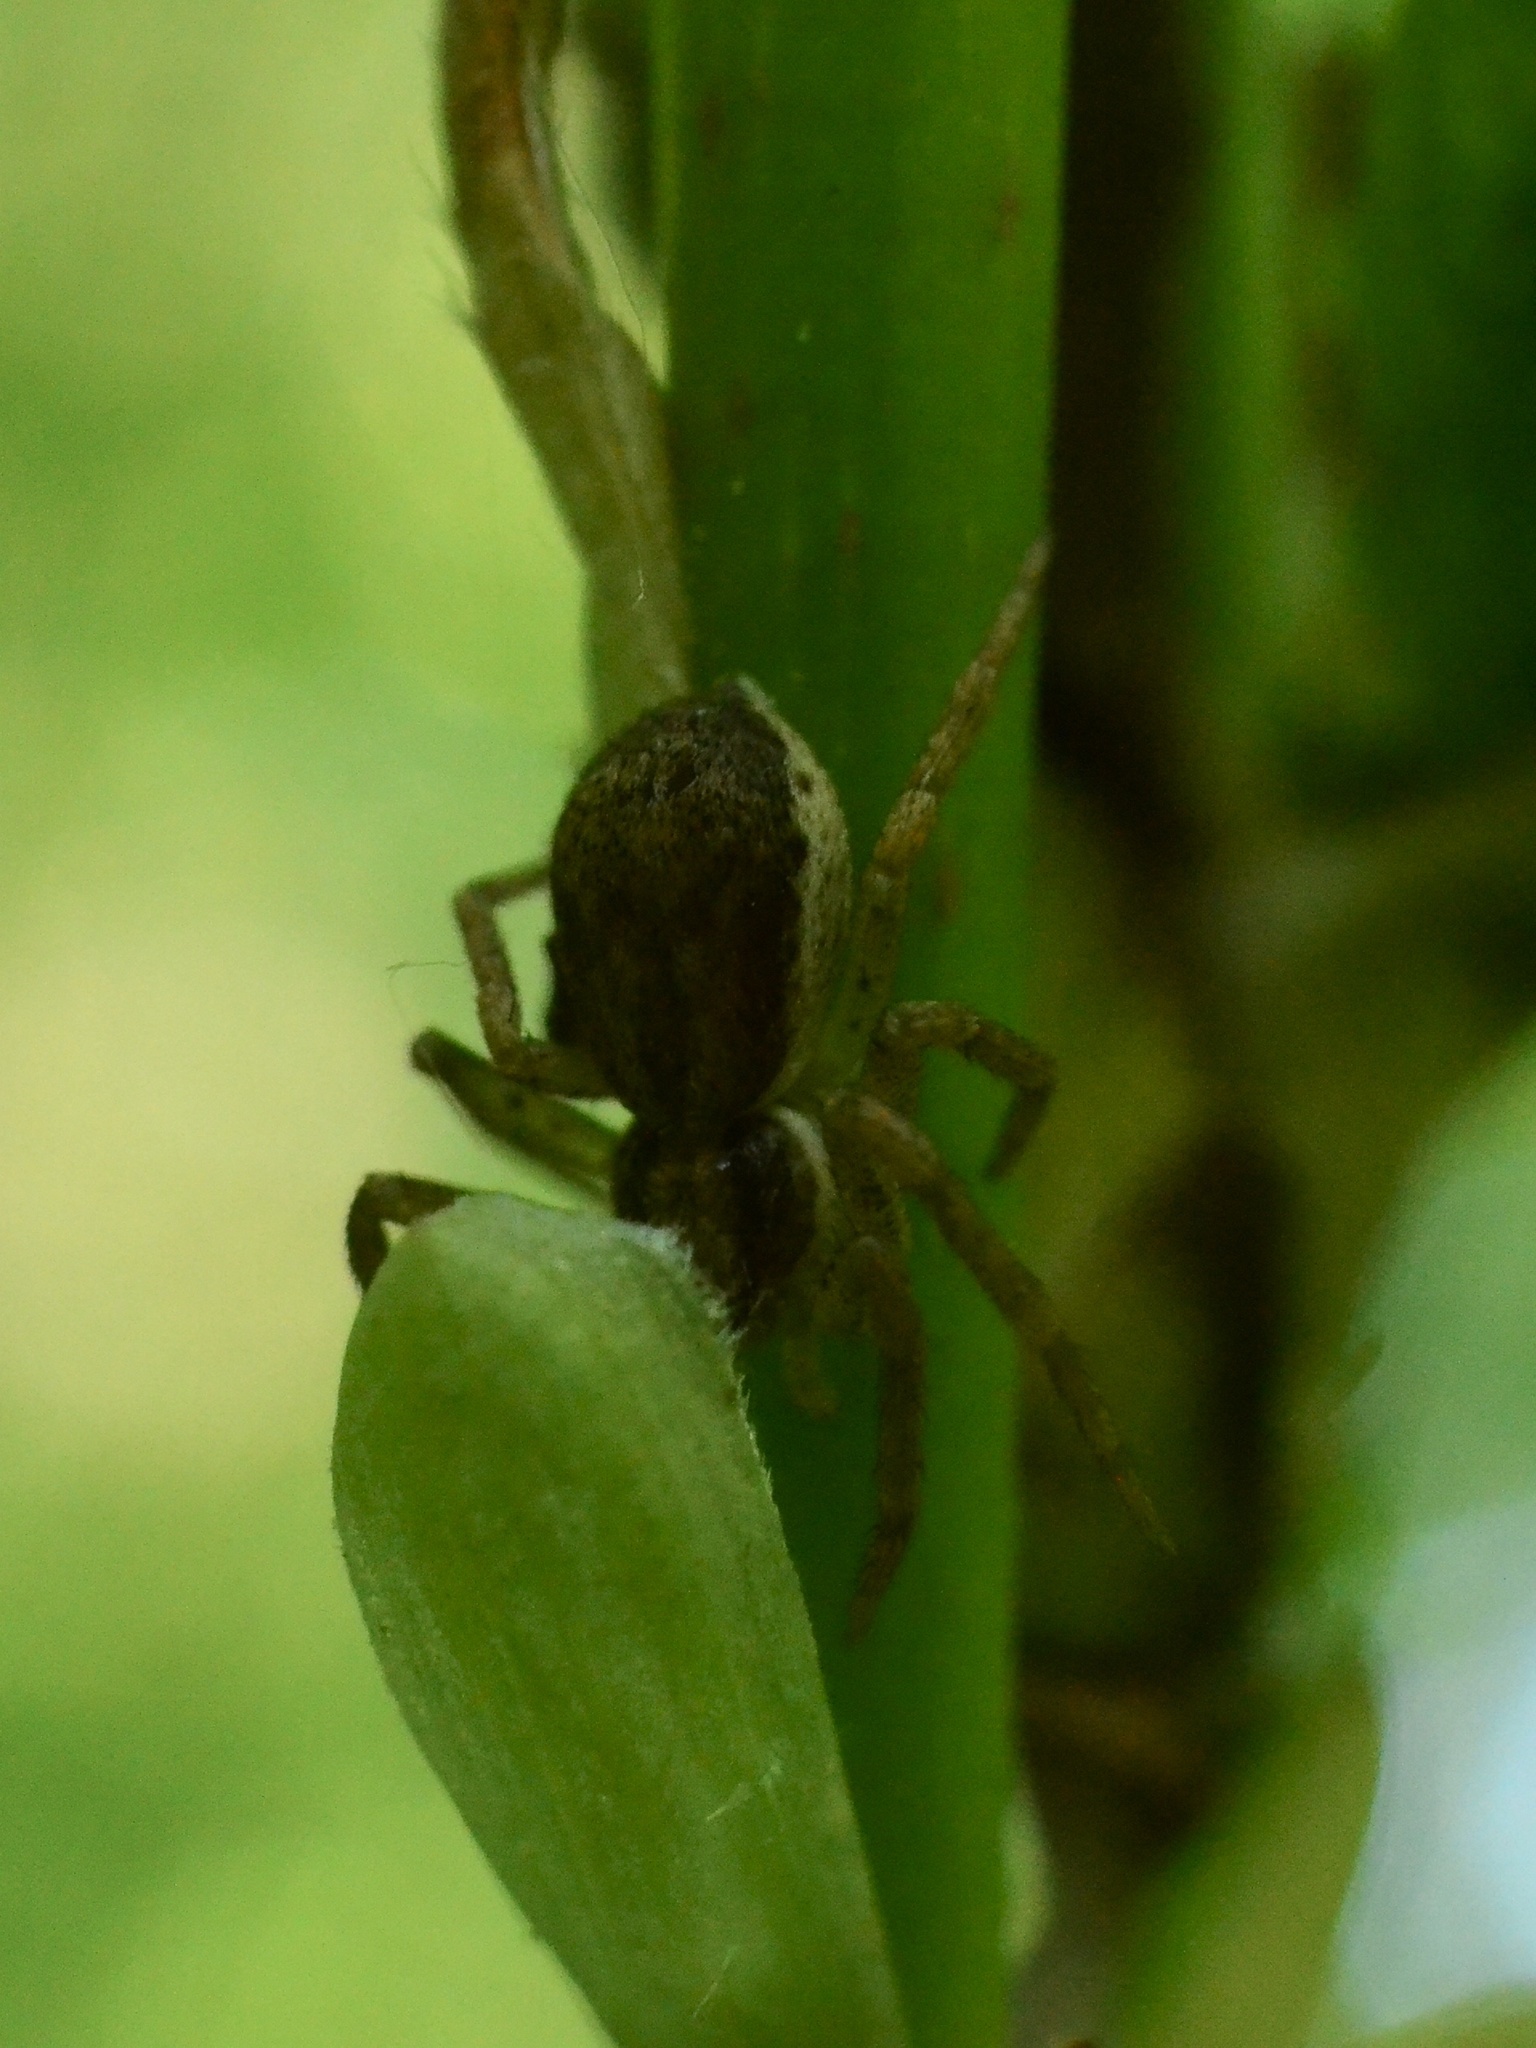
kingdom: Animalia
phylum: Arthropoda
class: Arachnida
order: Araneae
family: Philodromidae
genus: Philodromus
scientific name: Philodromus dispar
